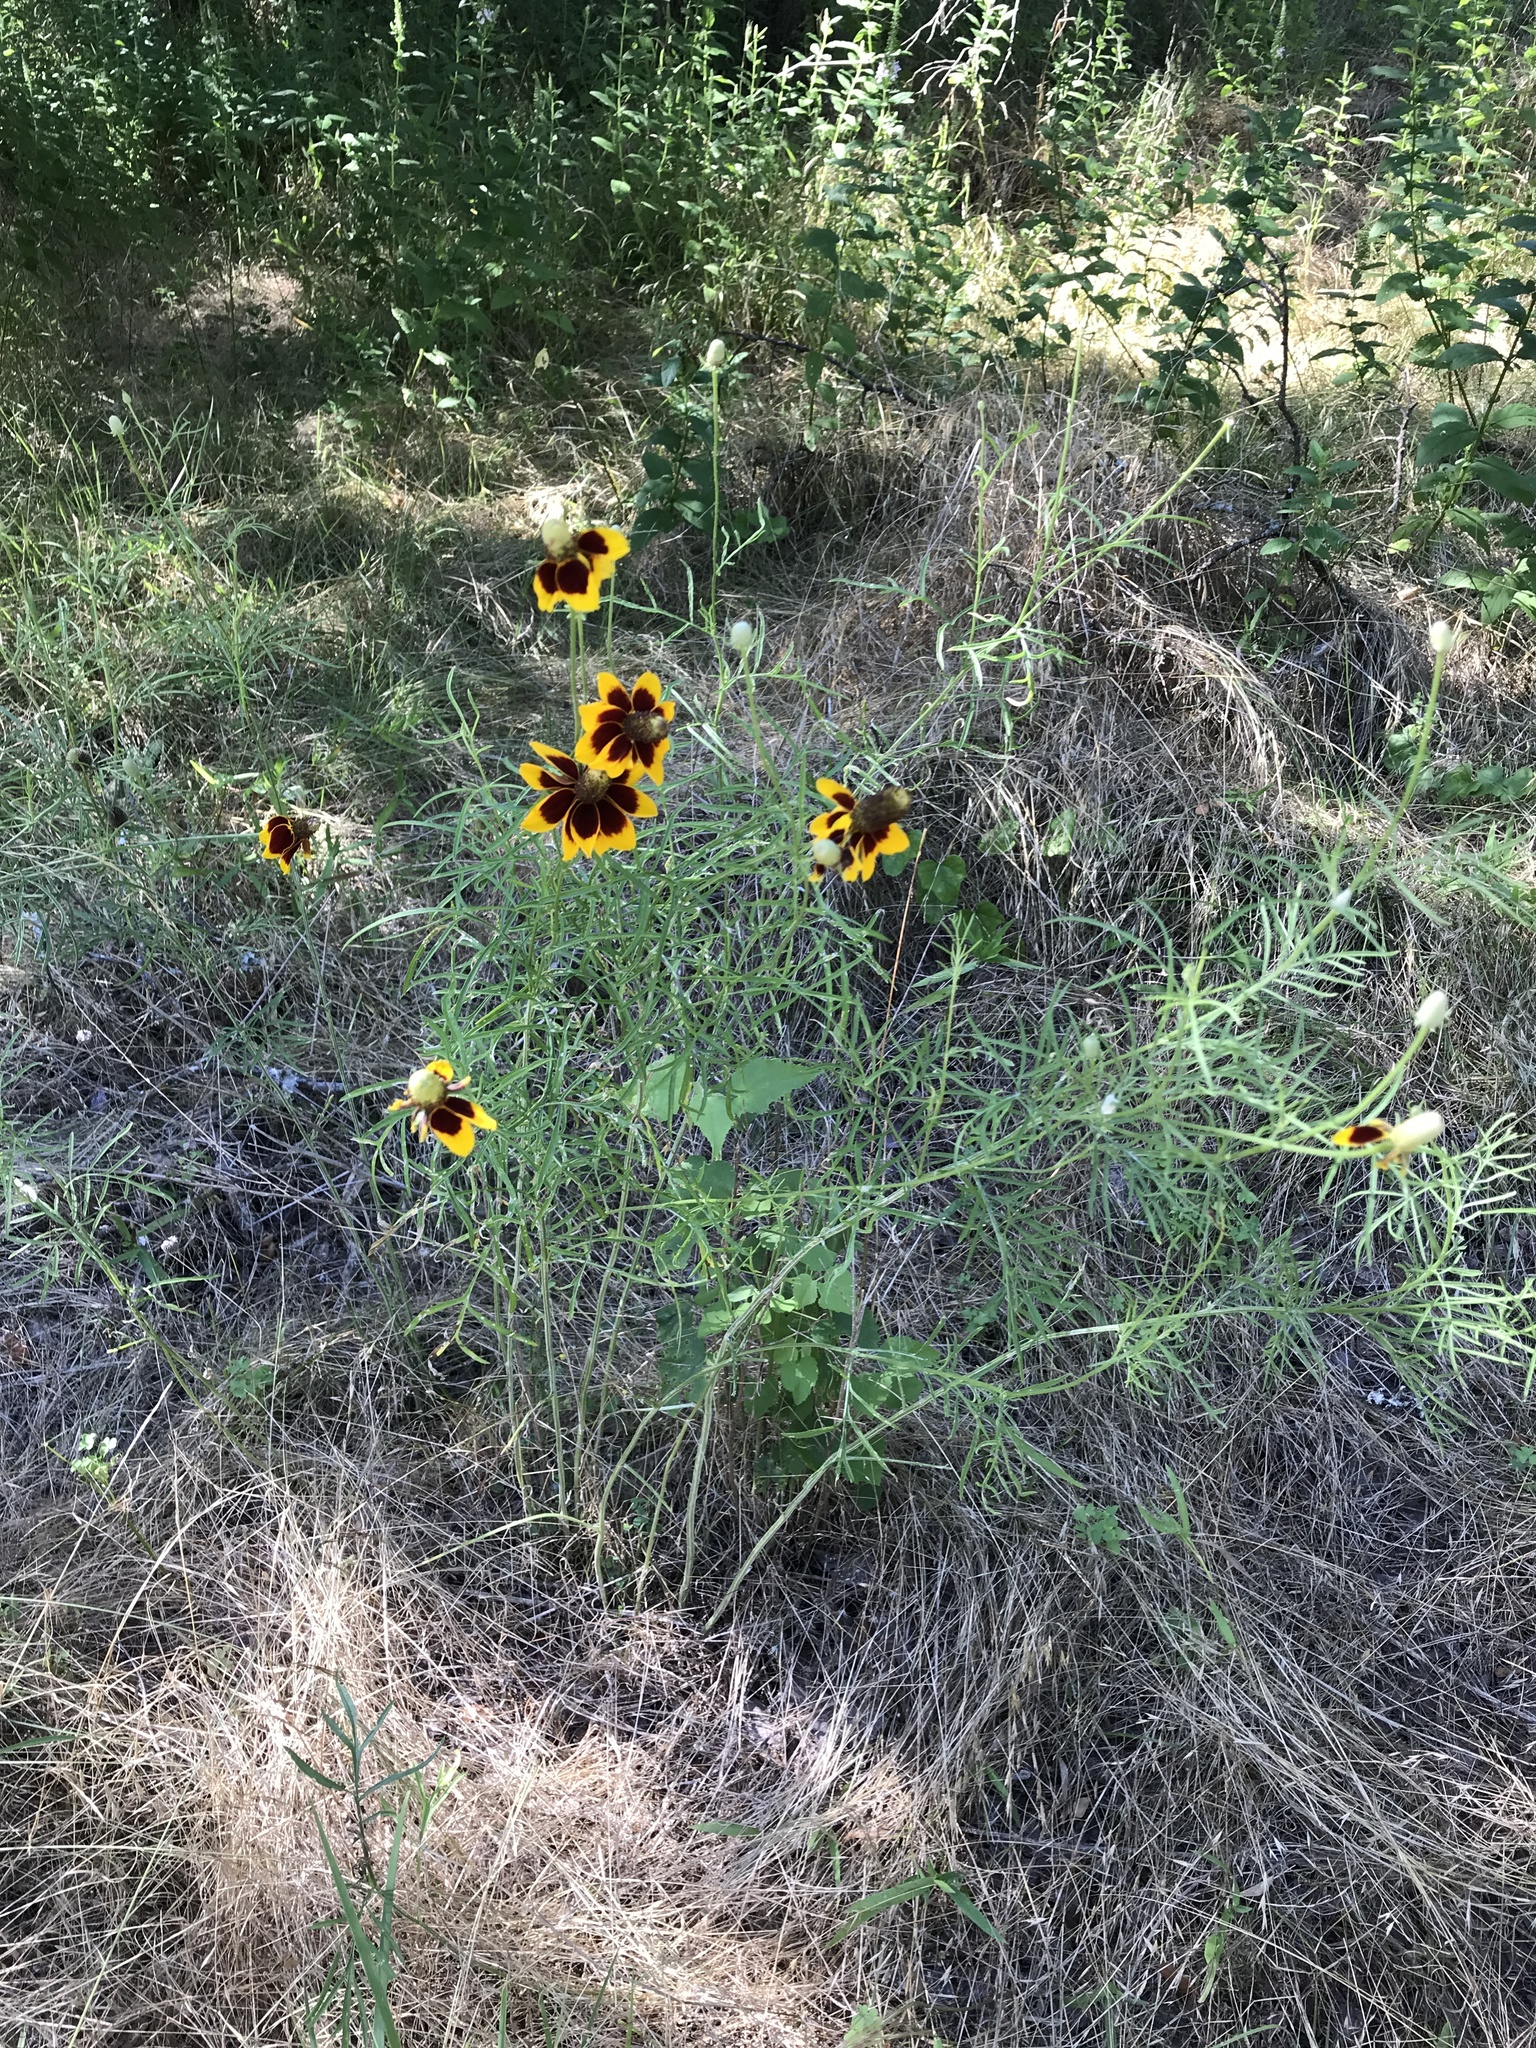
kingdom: Plantae
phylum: Tracheophyta
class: Magnoliopsida
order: Asterales
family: Asteraceae
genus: Ratibida
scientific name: Ratibida columnifera
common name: Prairie coneflower
